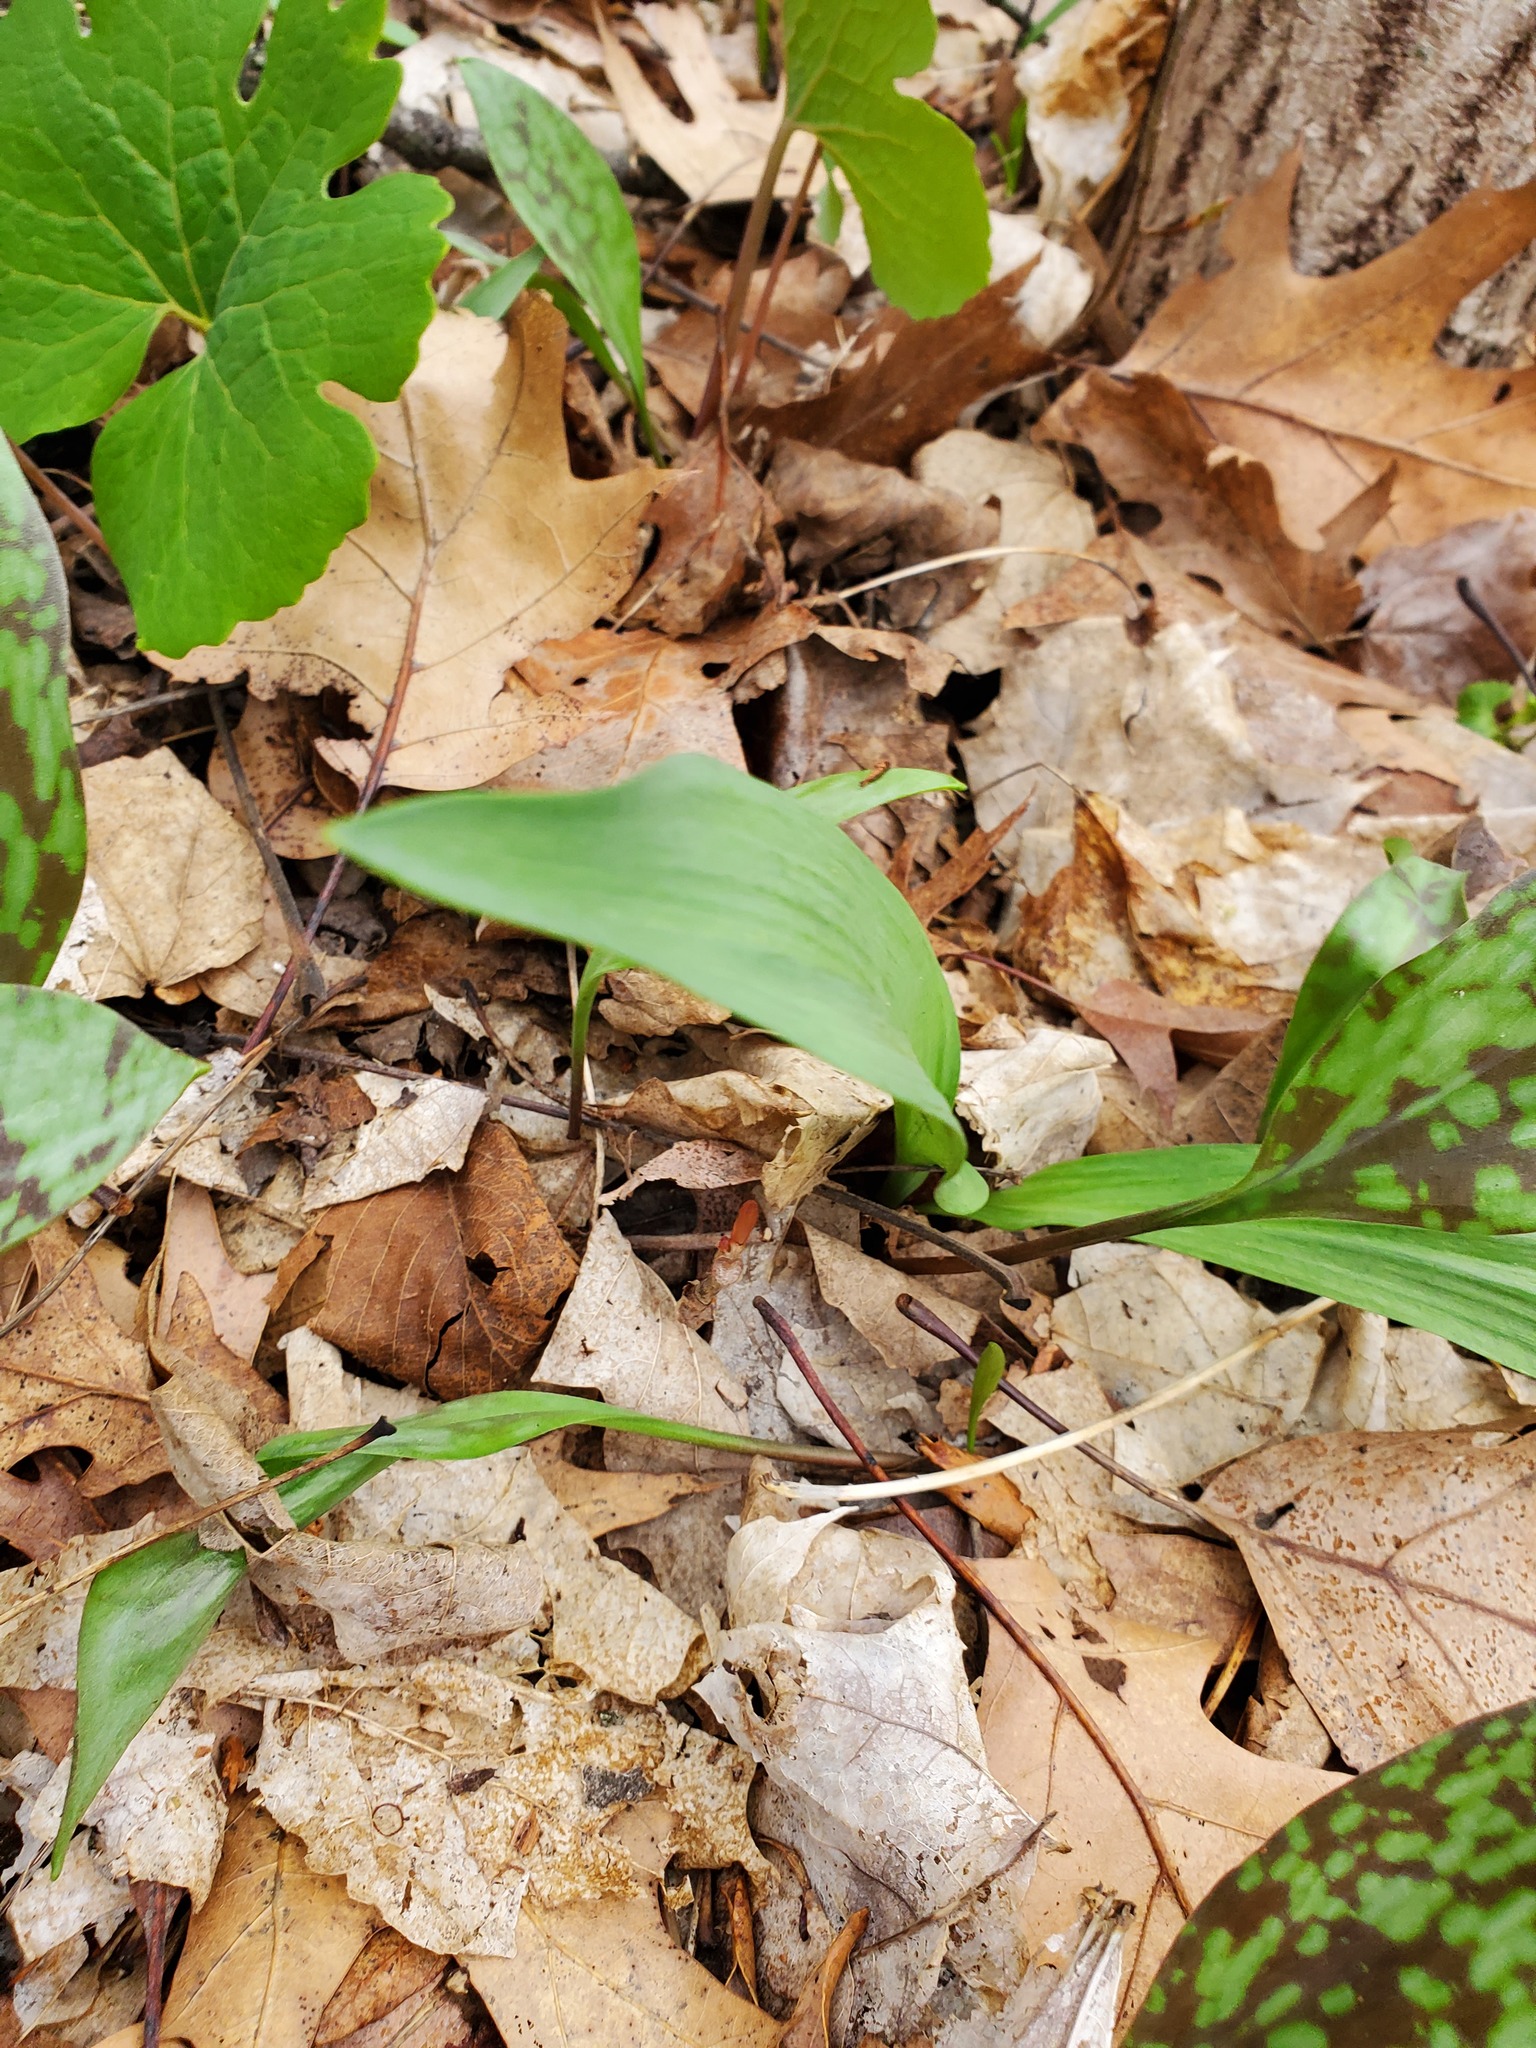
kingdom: Plantae
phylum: Tracheophyta
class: Liliopsida
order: Asparagales
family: Amaryllidaceae
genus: Allium
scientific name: Allium tricoccum
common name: Ramp
